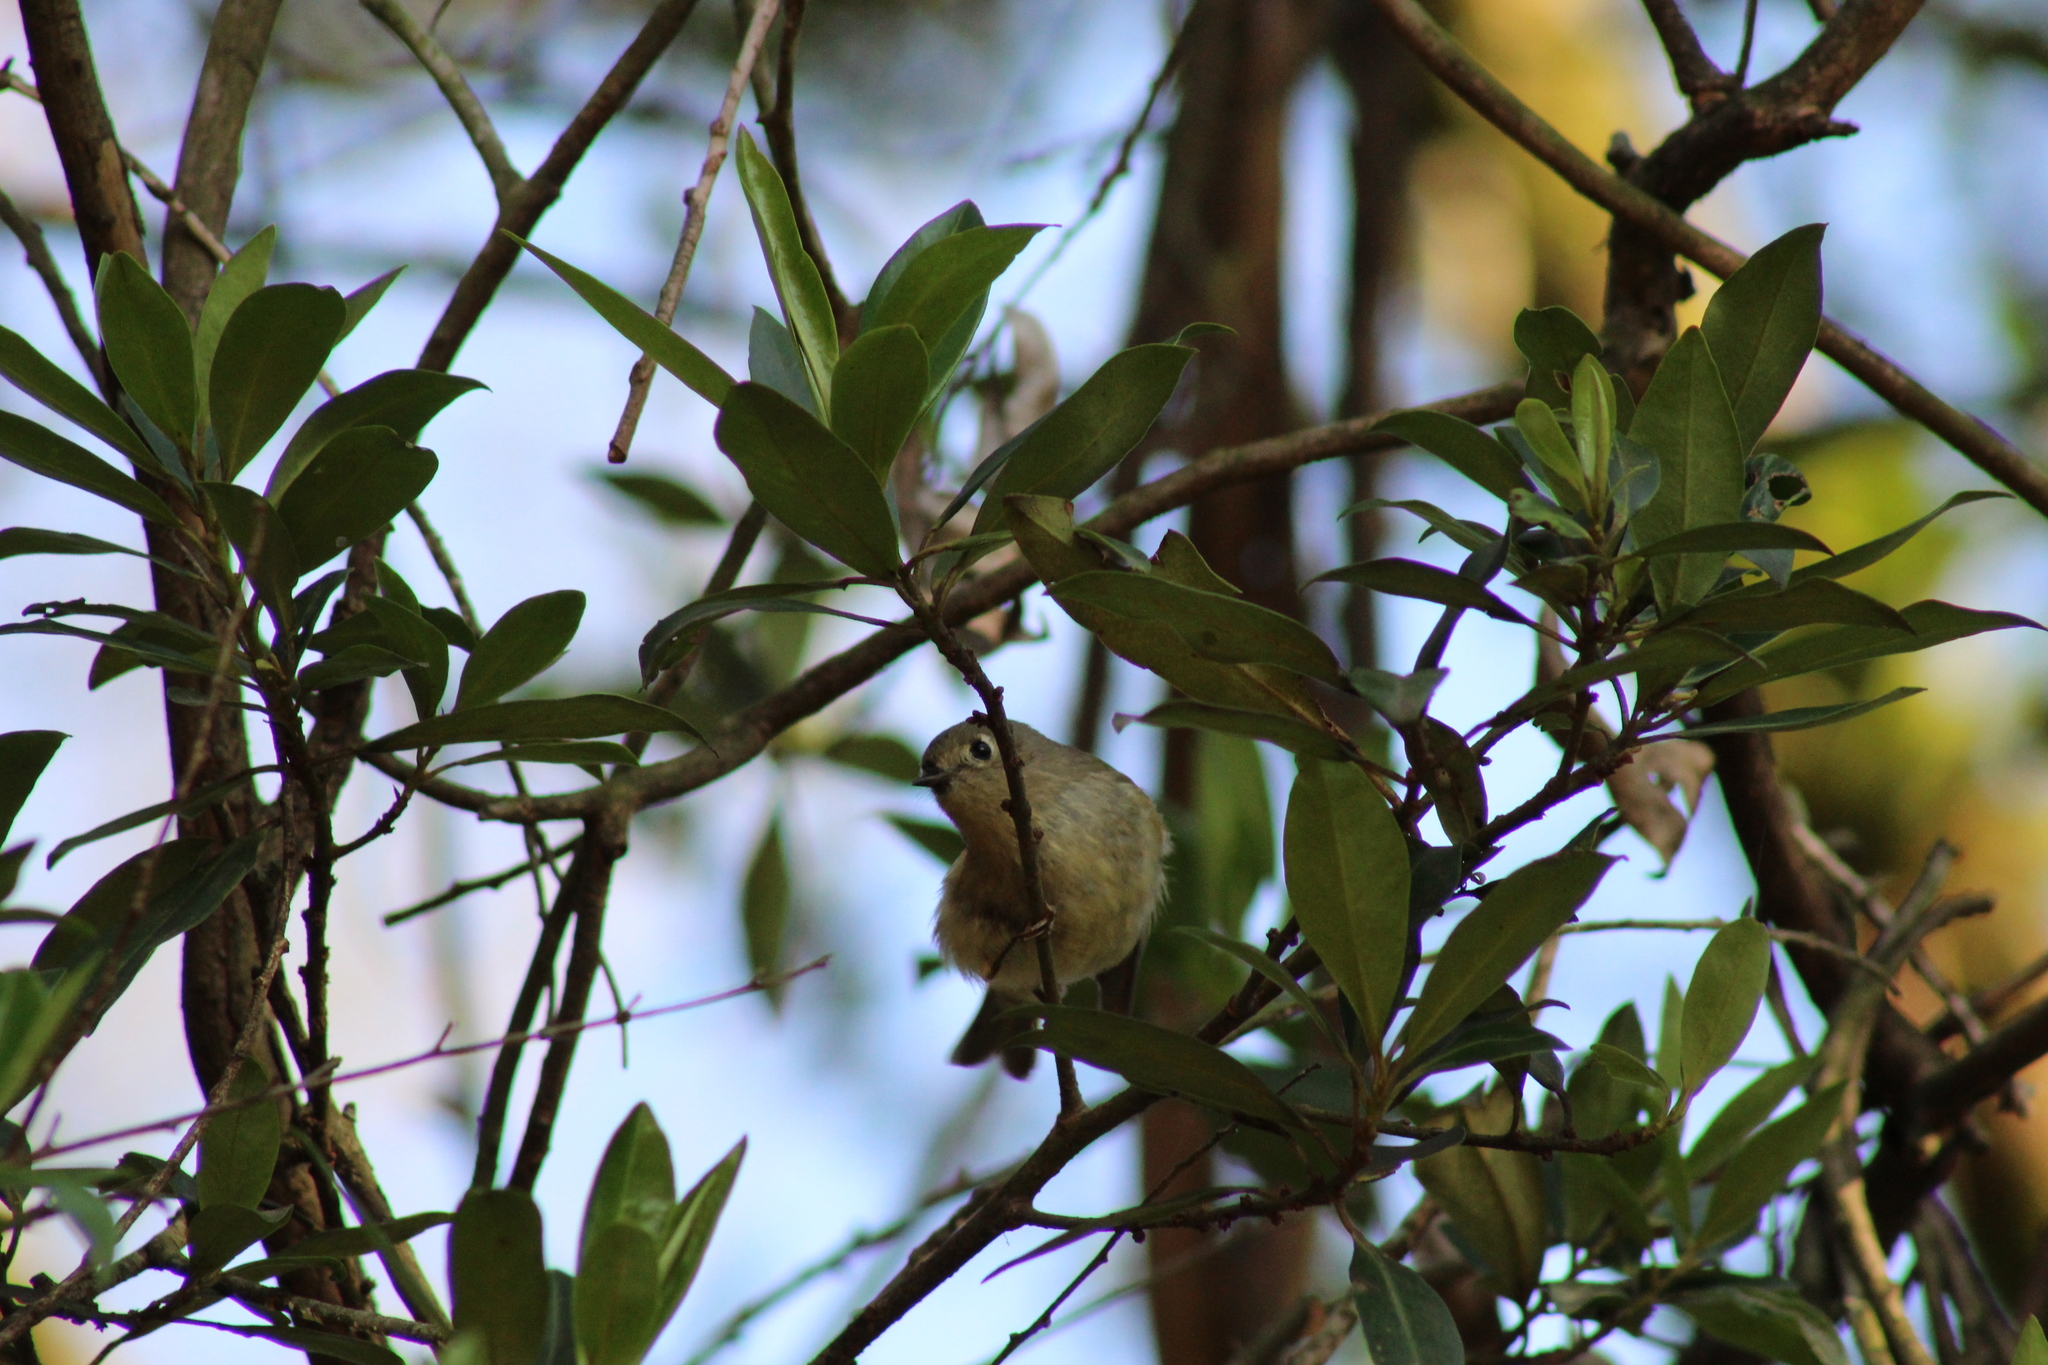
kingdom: Animalia
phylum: Chordata
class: Aves
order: Passeriformes
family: Regulidae
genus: Regulus
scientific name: Regulus calendula
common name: Ruby-crowned kinglet
